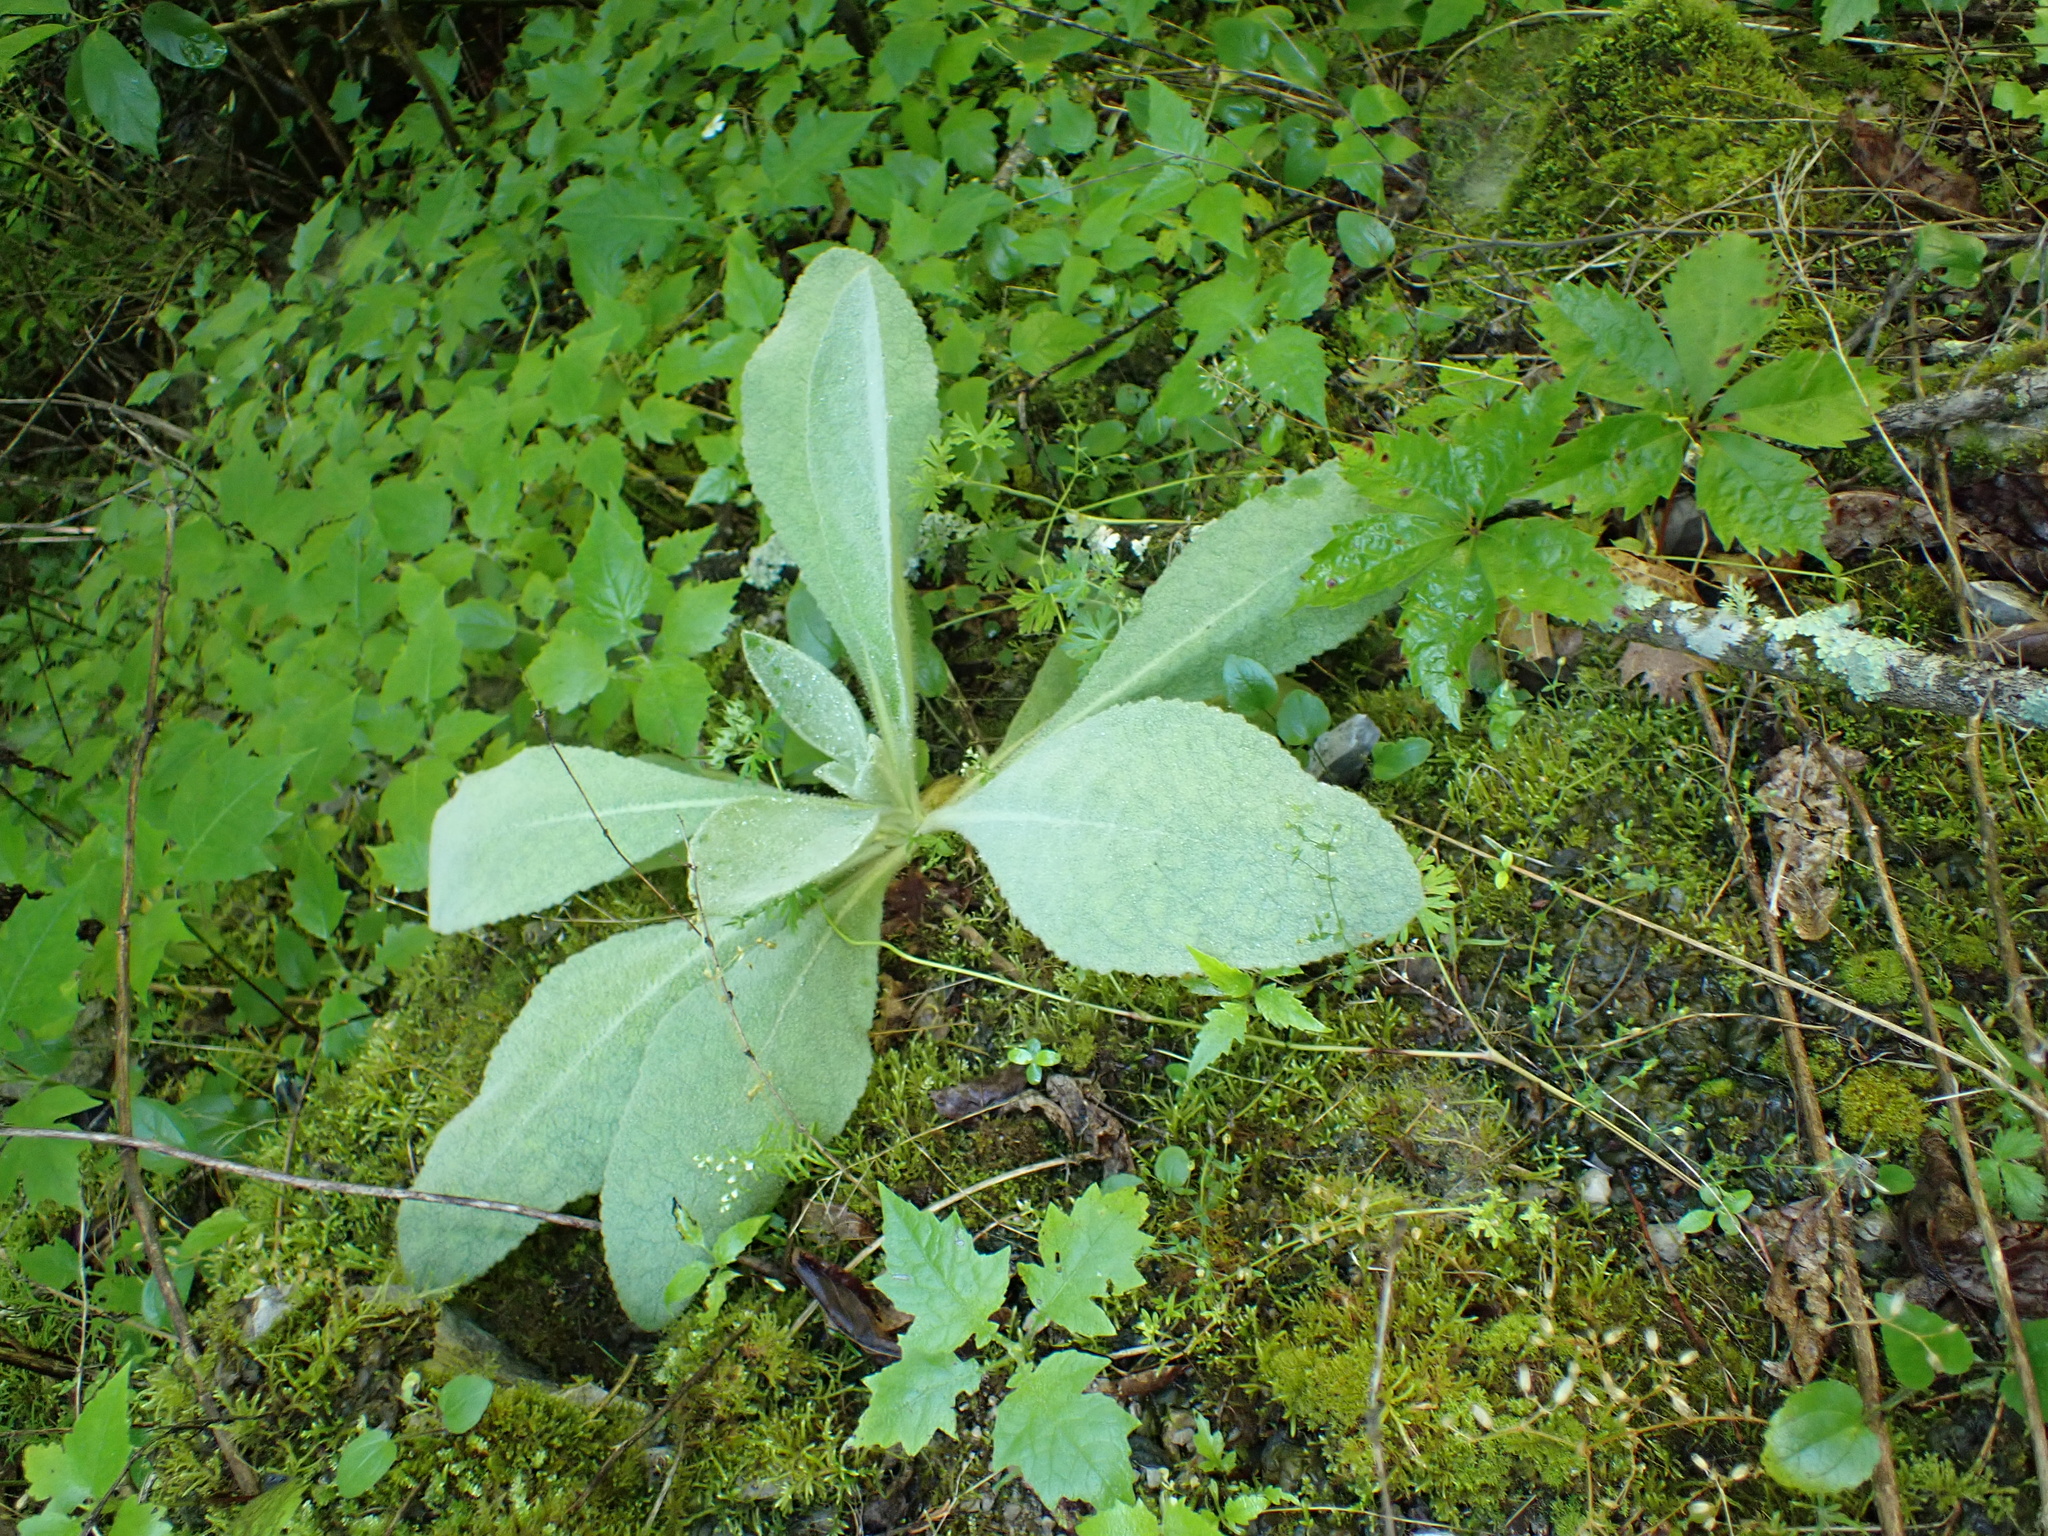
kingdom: Plantae
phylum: Tracheophyta
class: Magnoliopsida
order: Lamiales
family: Scrophulariaceae
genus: Verbascum
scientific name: Verbascum thapsus
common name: Common mullein
